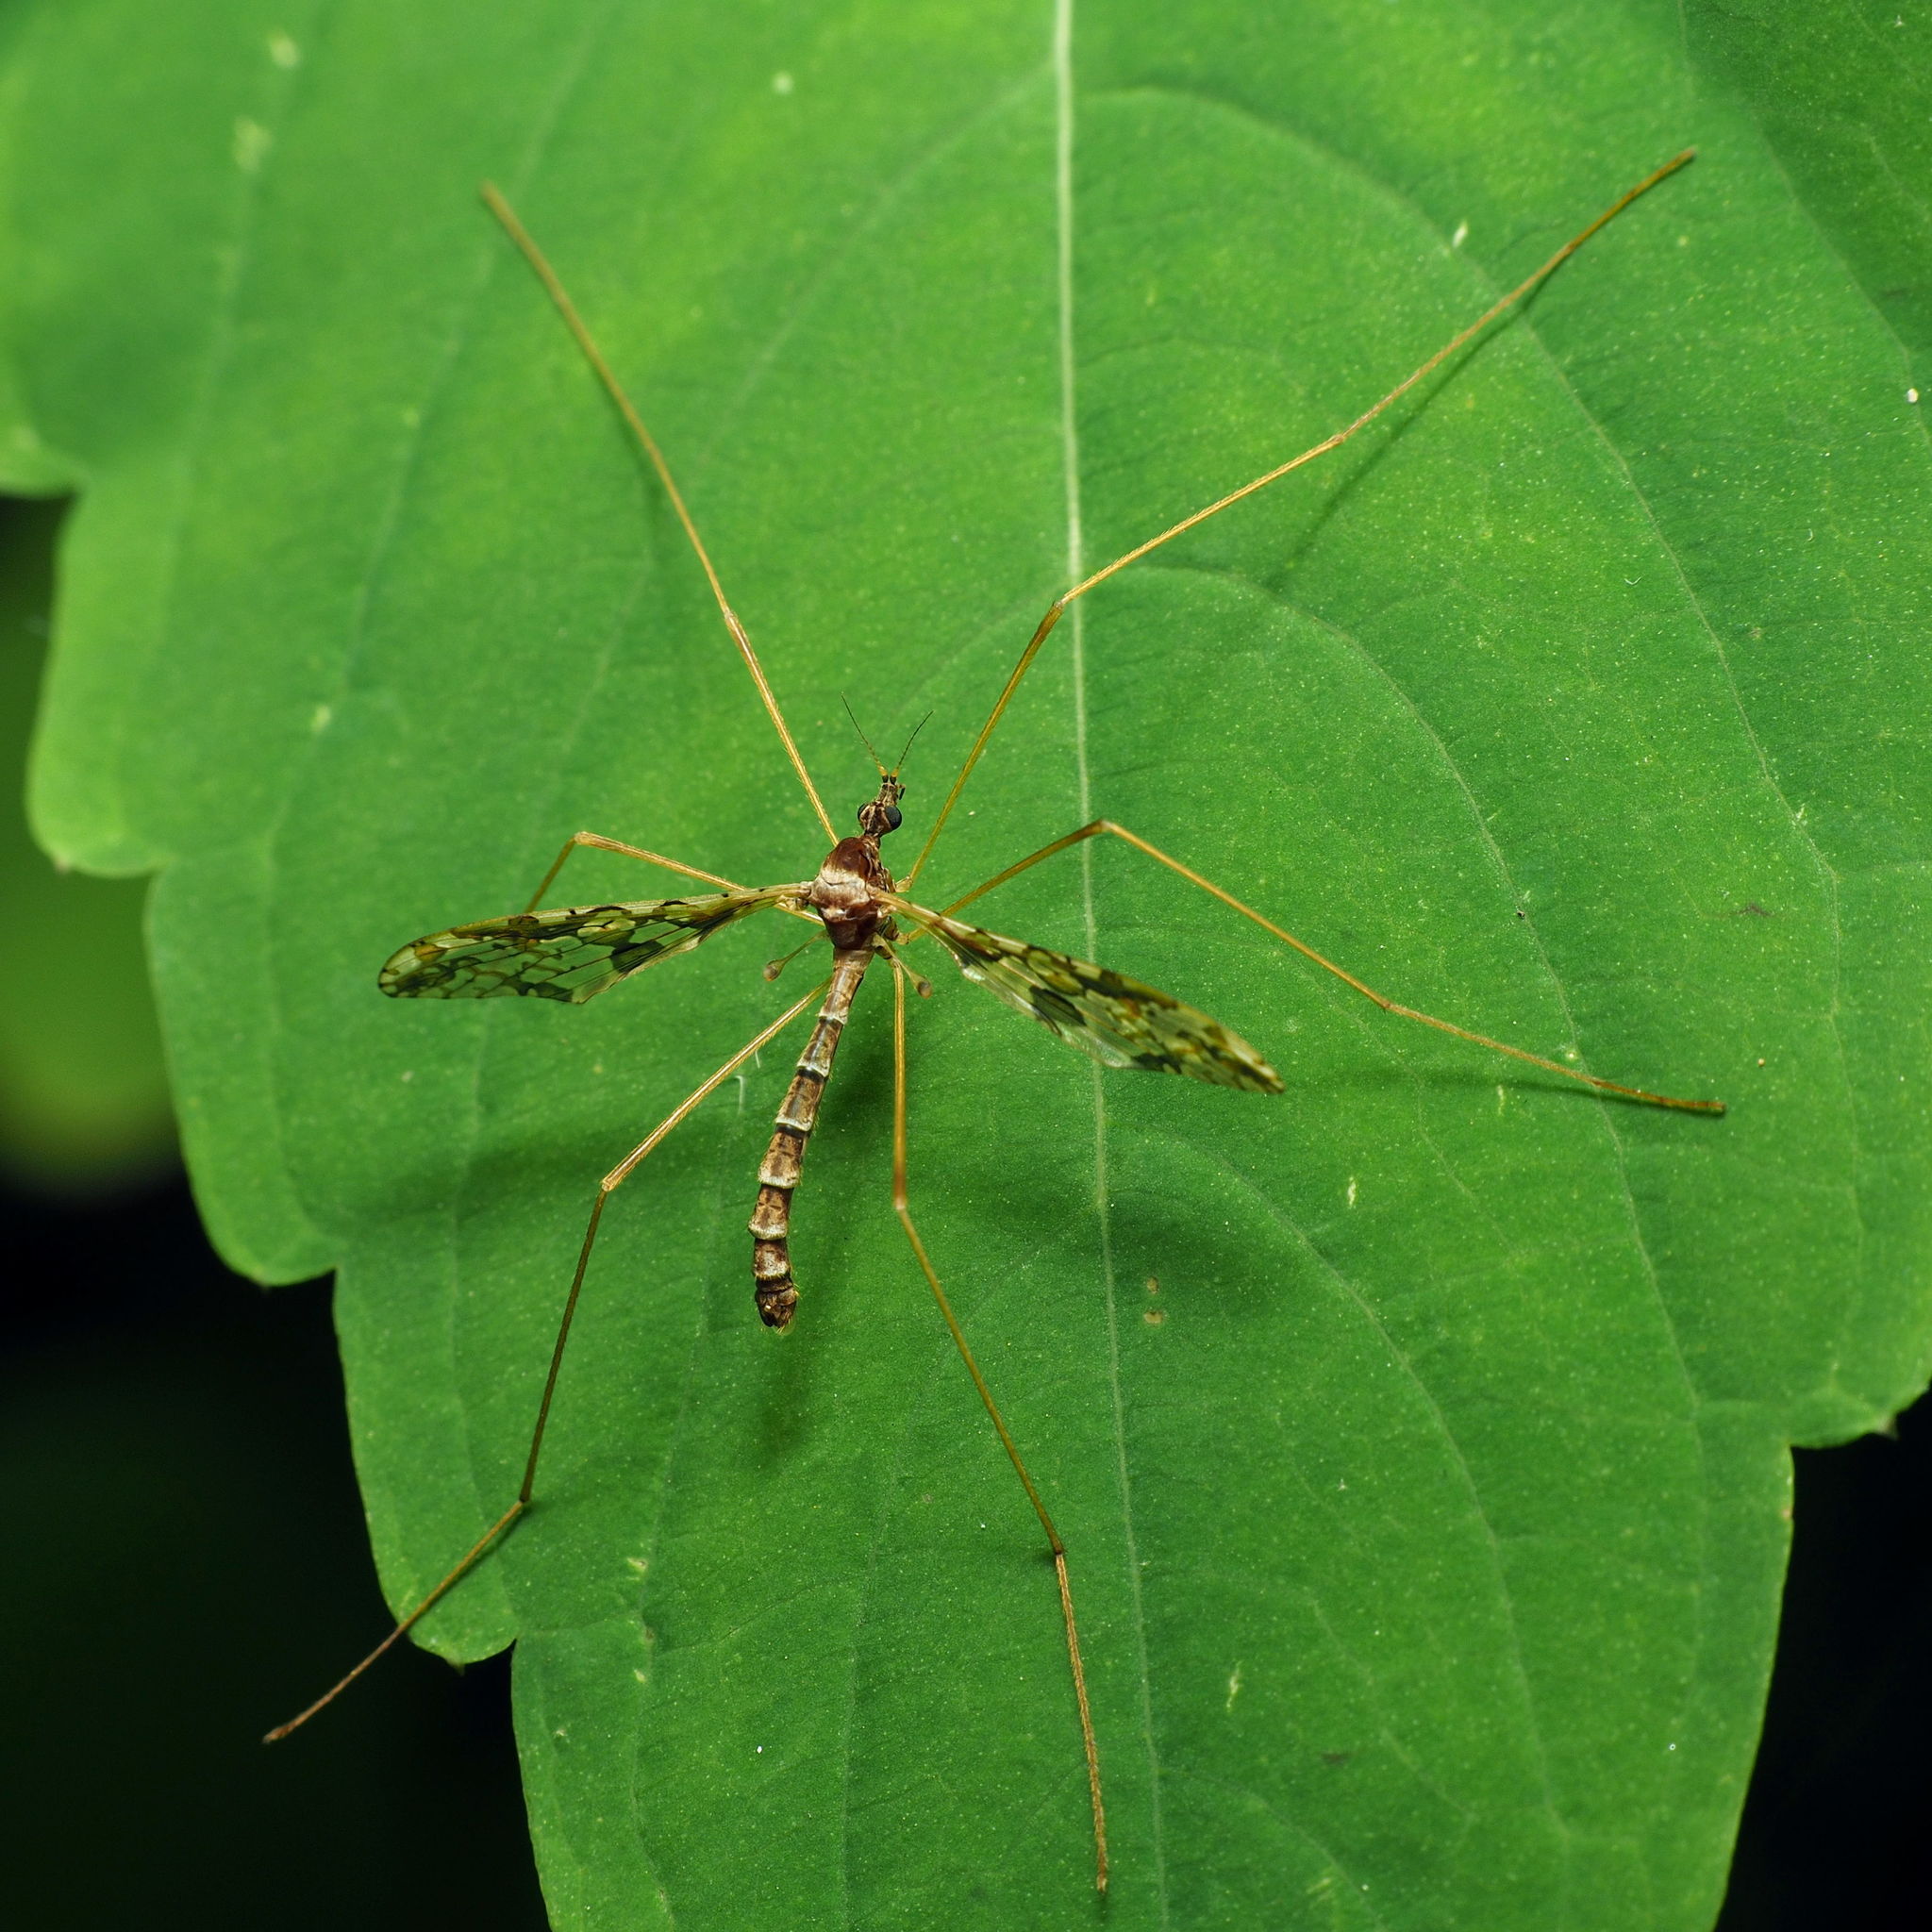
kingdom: Animalia
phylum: Arthropoda
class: Insecta
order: Diptera
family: Limoniidae
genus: Epiphragma
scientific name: Epiphragma solatrix
